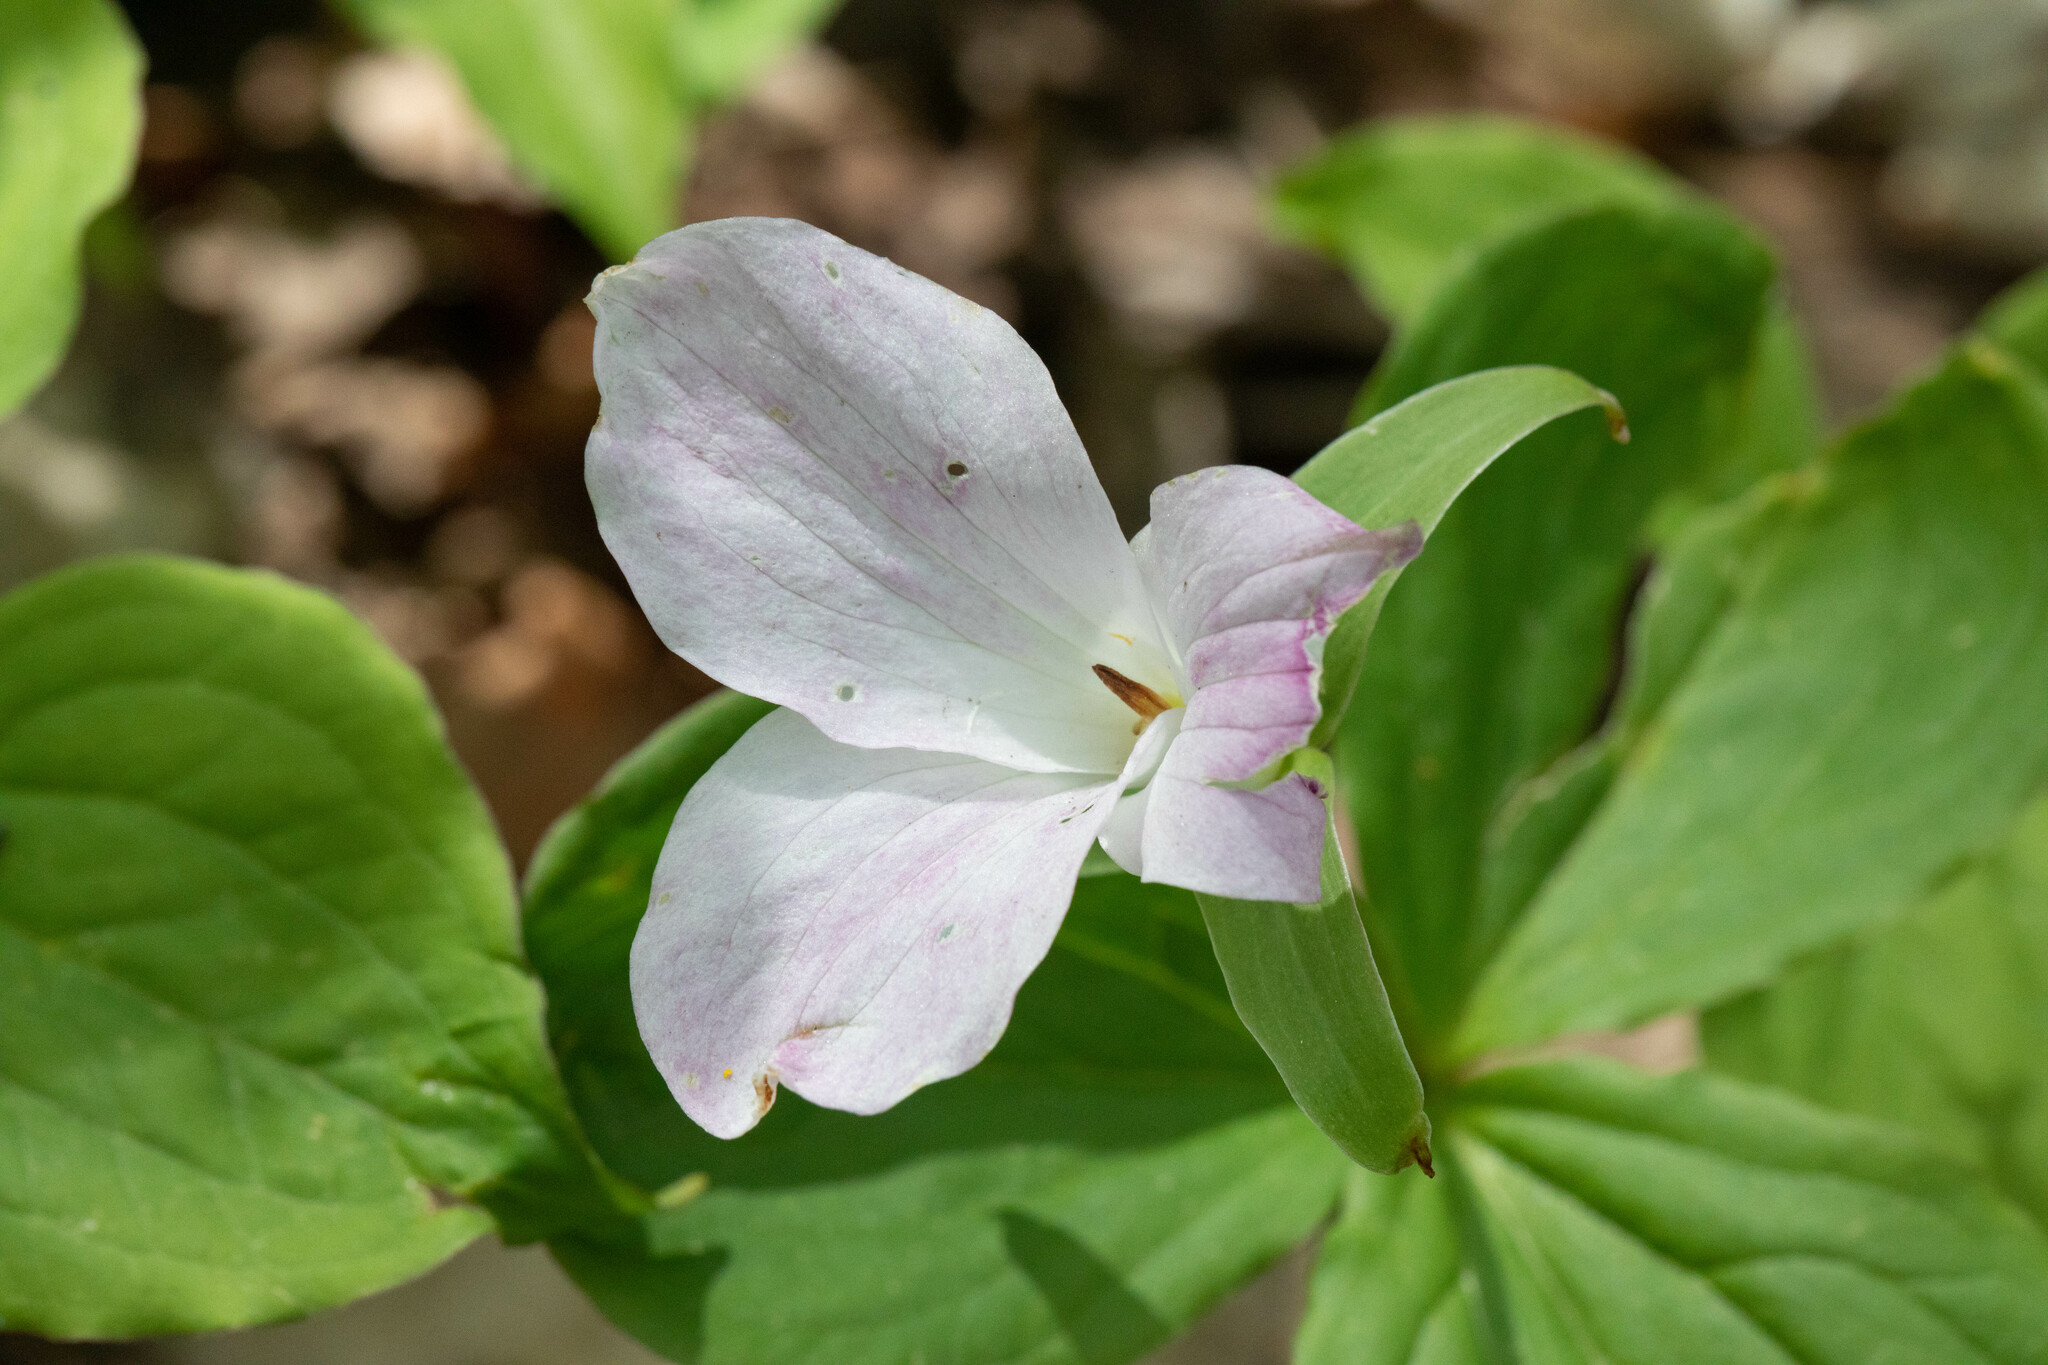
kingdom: Plantae
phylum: Tracheophyta
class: Liliopsida
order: Liliales
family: Melanthiaceae
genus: Trillium
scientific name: Trillium grandiflorum
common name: Great white trillium
